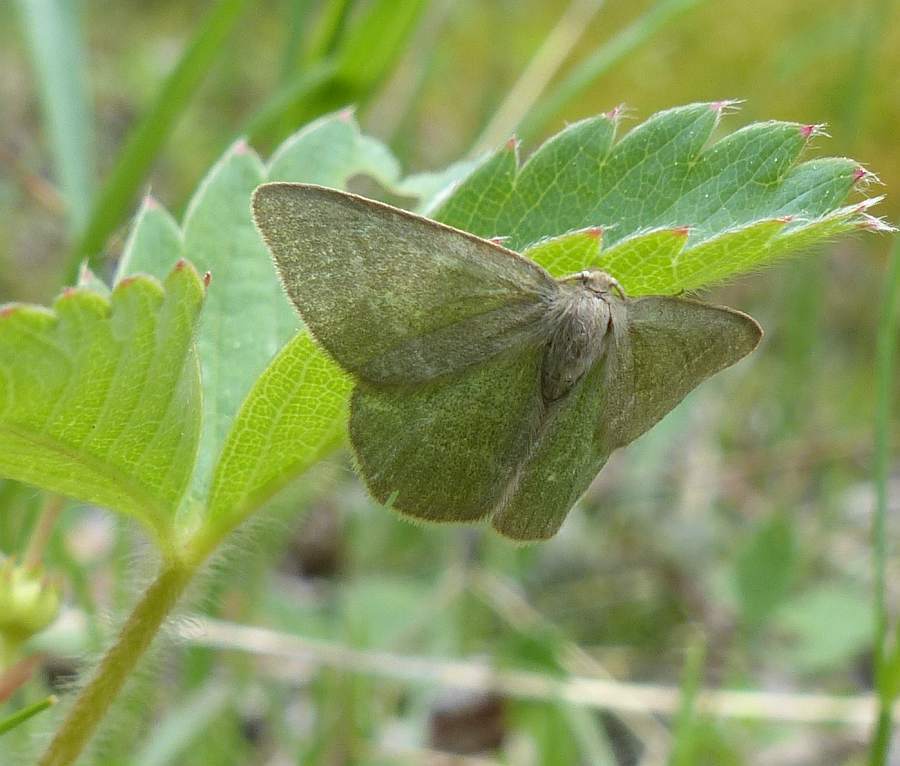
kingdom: Animalia
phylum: Arthropoda
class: Insecta
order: Lepidoptera
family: Geometridae
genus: Mesothea
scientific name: Mesothea incertata
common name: Day emerald moth
